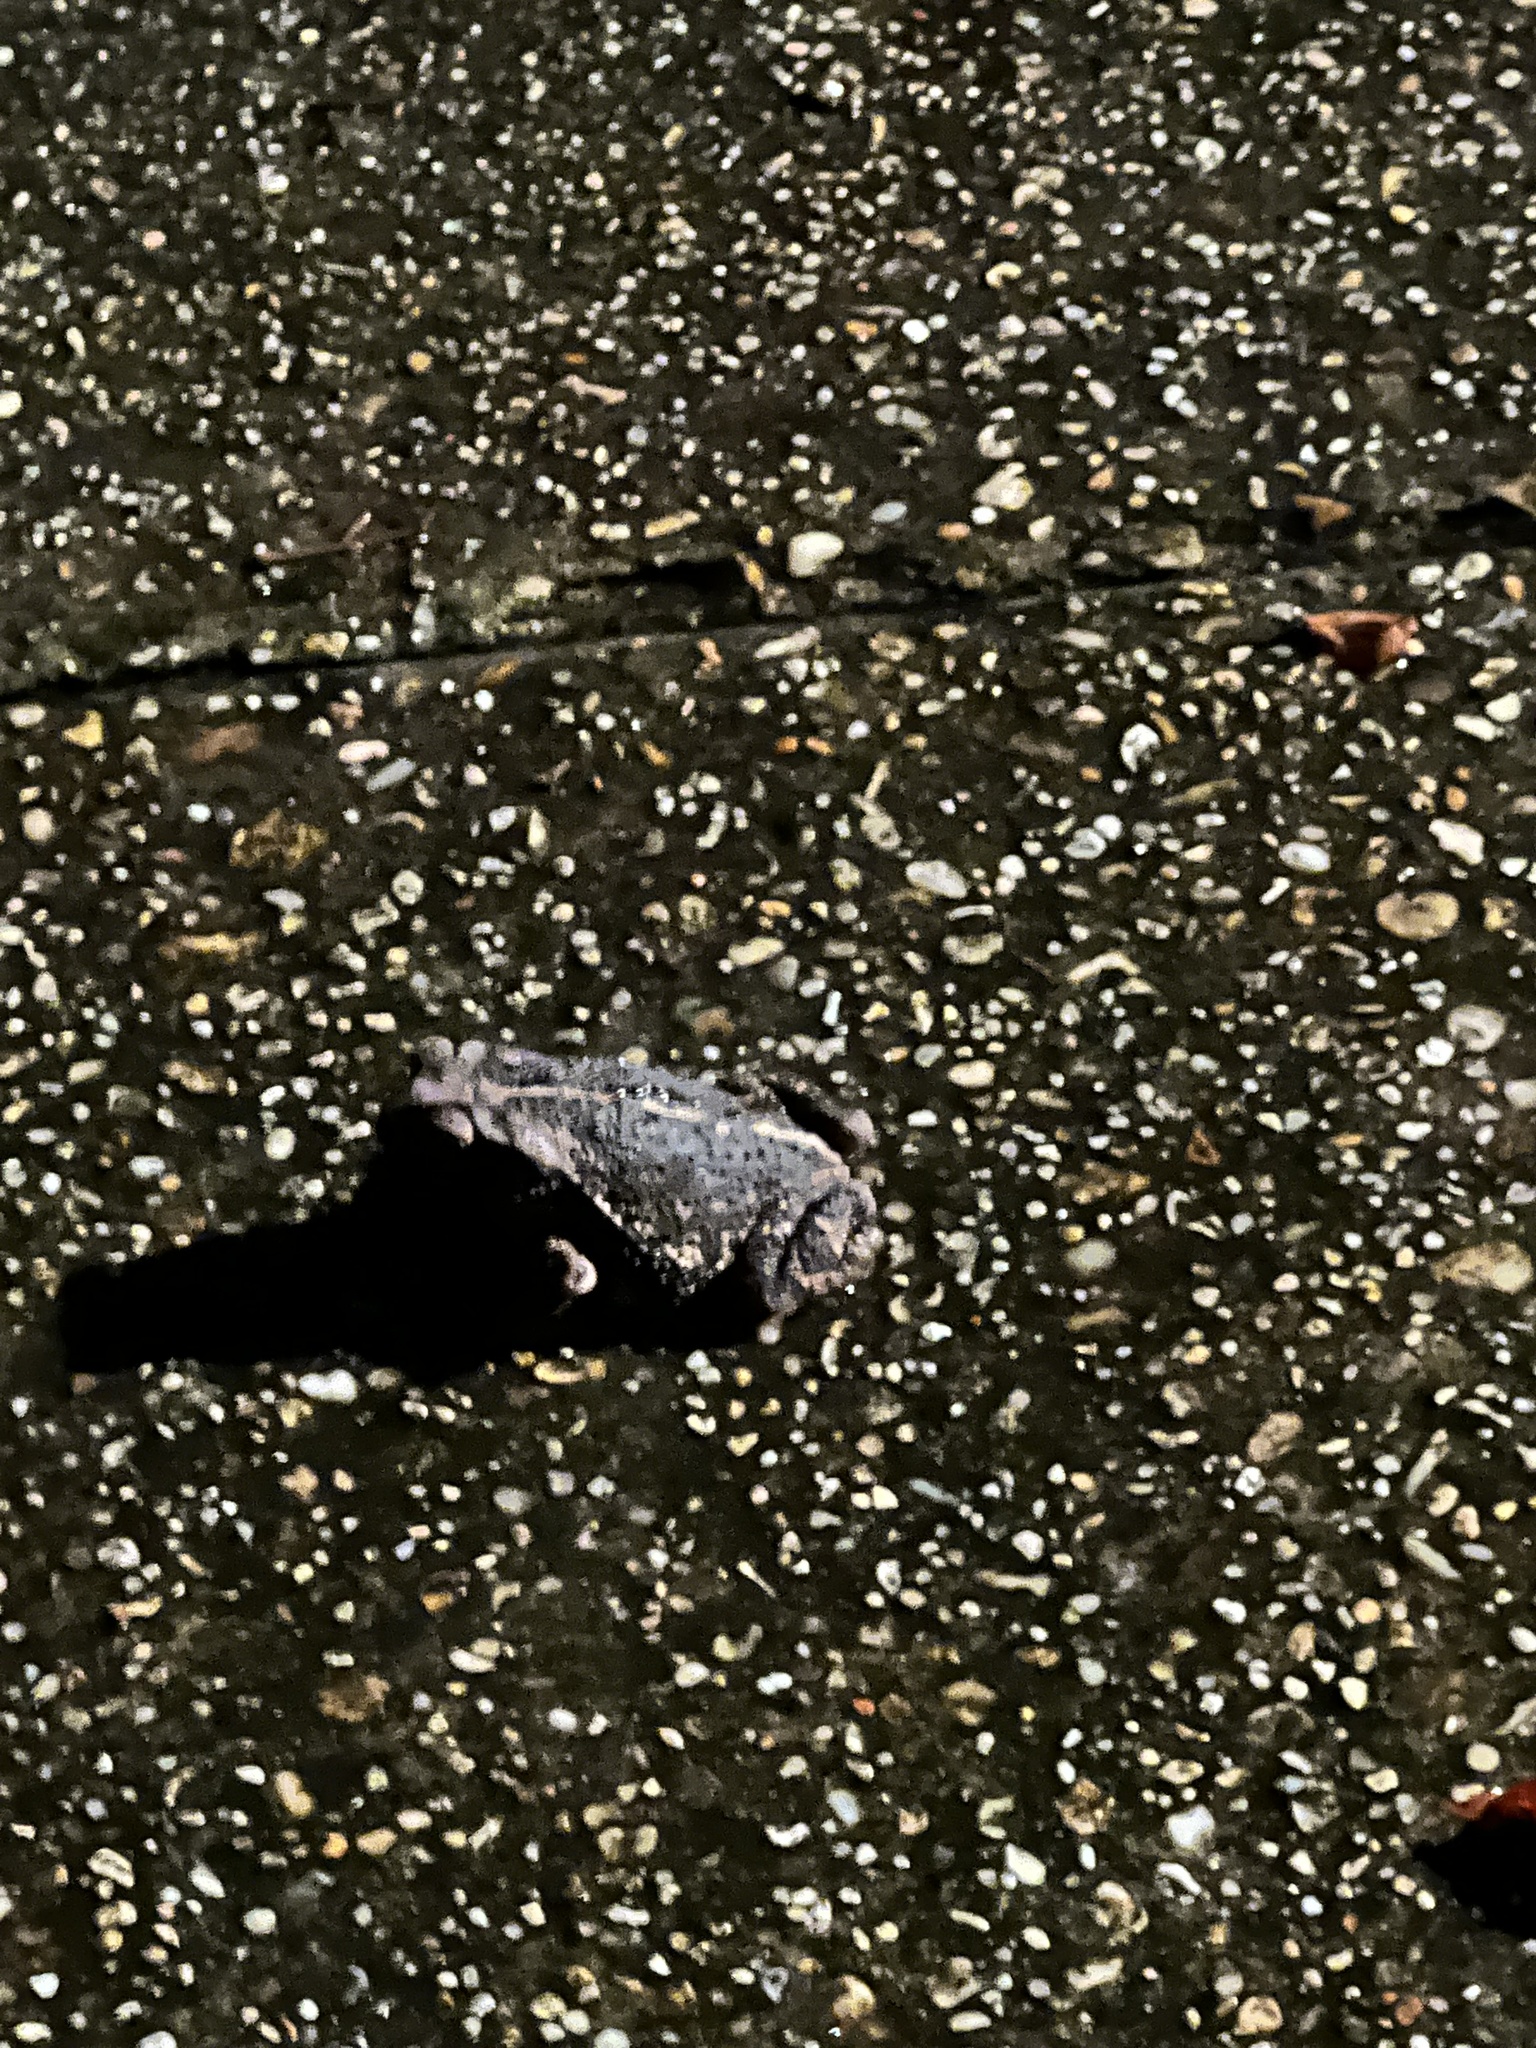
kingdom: Animalia
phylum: Chordata
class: Amphibia
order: Anura
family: Bufonidae
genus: Incilius
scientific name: Incilius nebulifer
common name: Gulf coast toad
